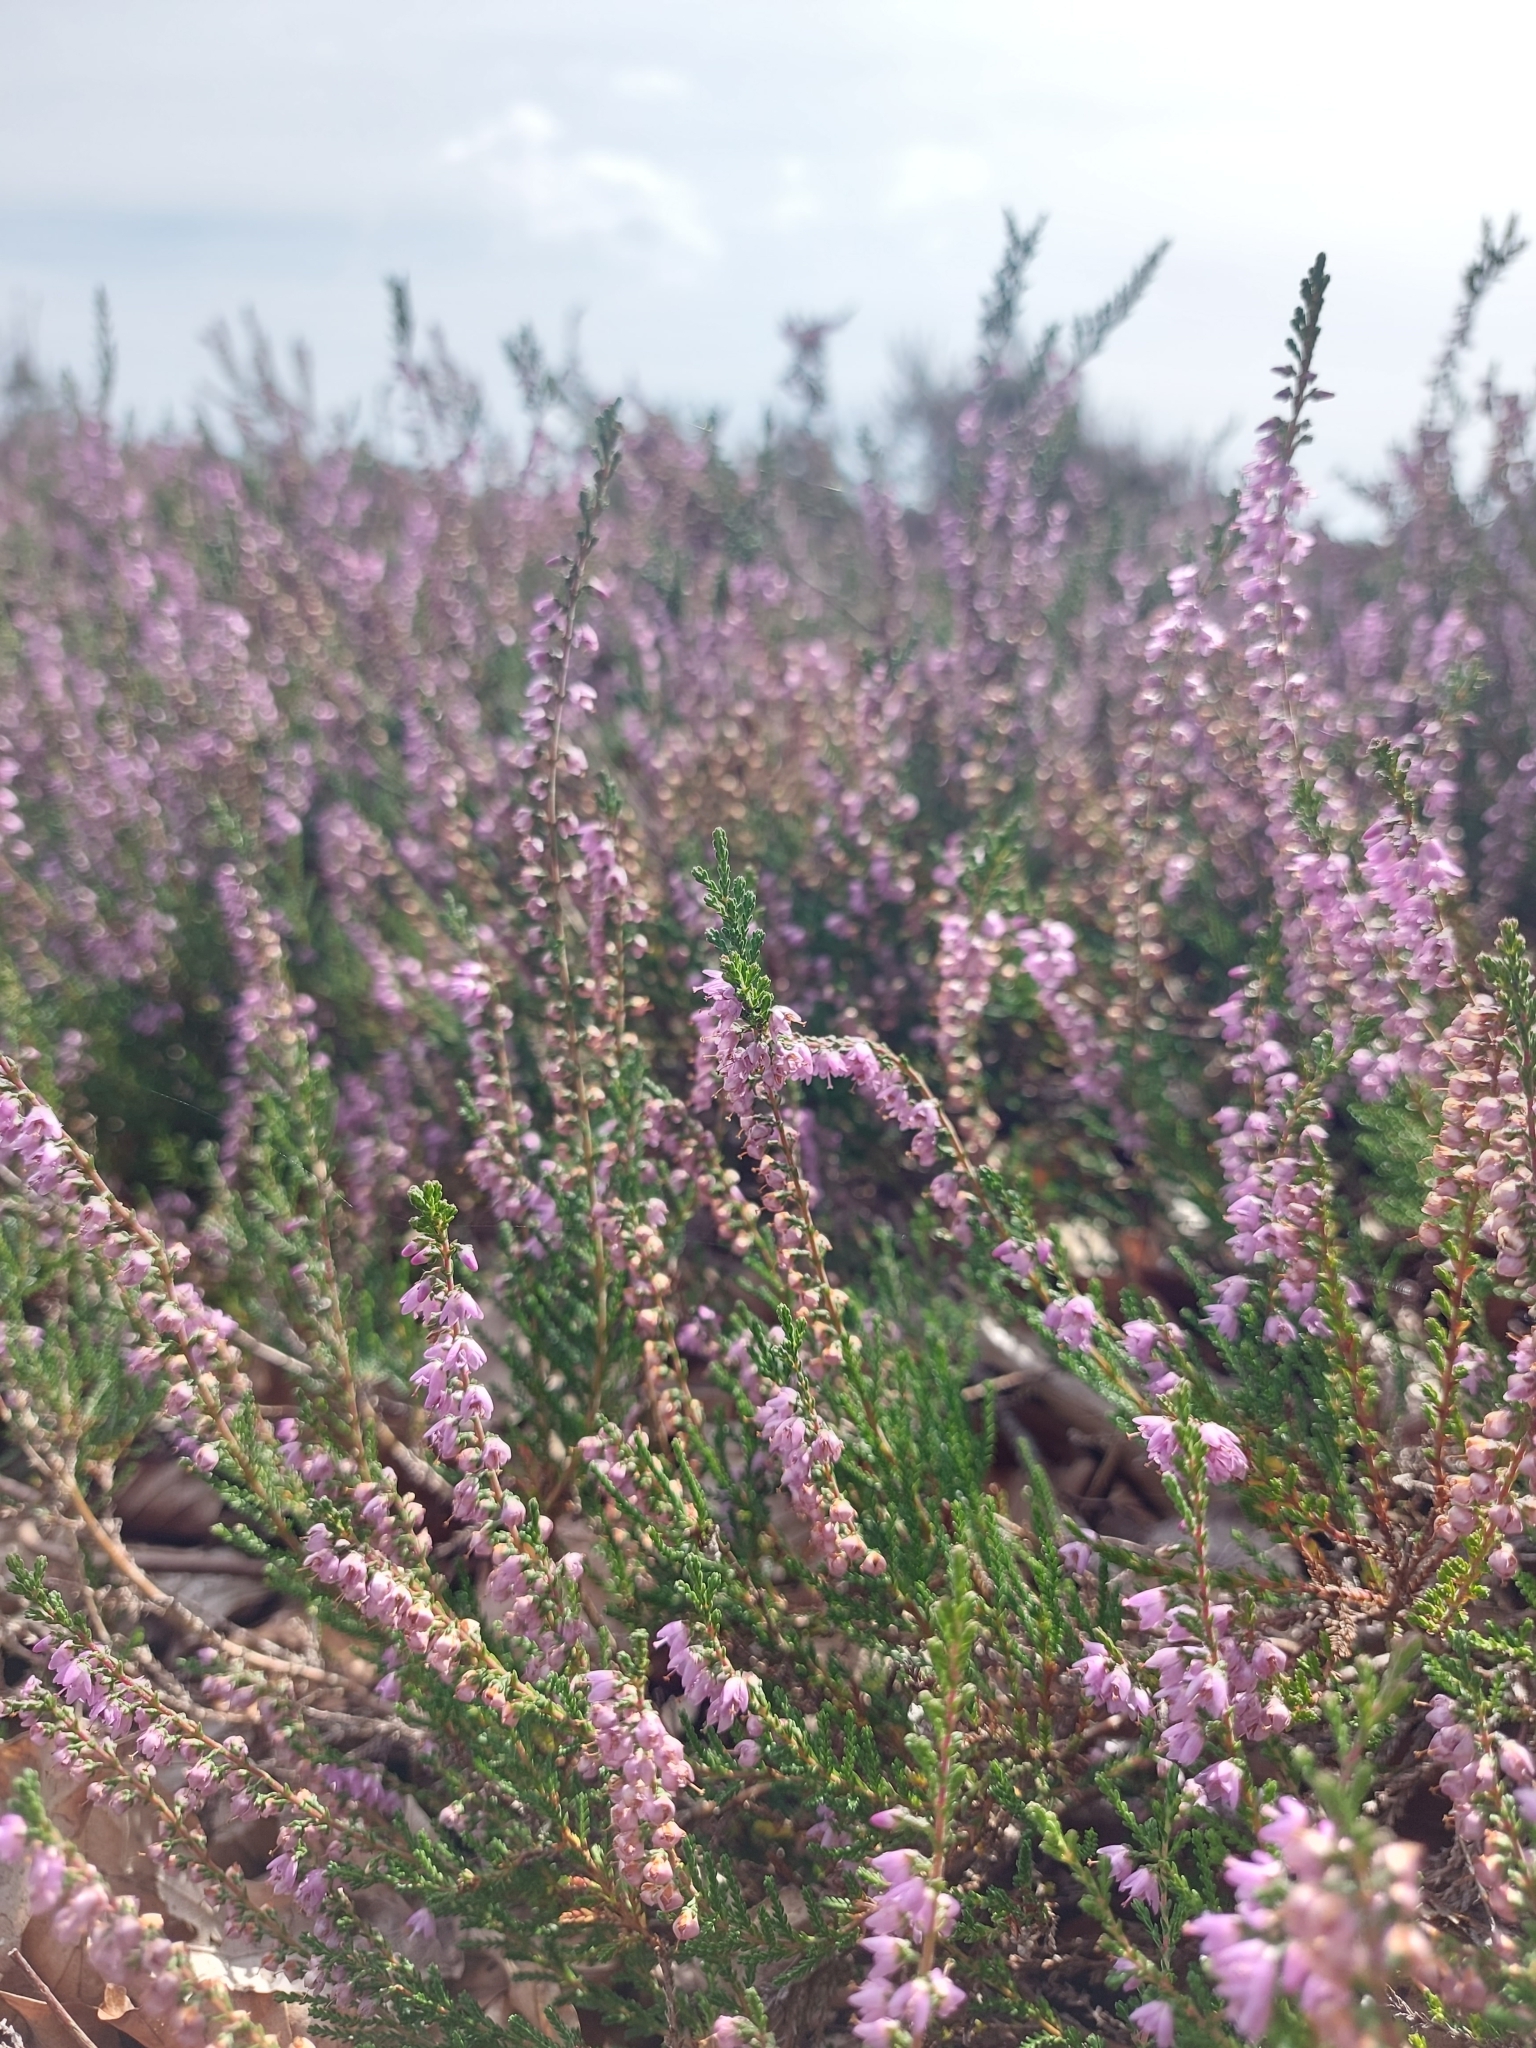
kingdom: Plantae
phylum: Tracheophyta
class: Magnoliopsida
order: Ericales
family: Ericaceae
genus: Calluna
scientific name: Calluna vulgaris
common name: Heather
